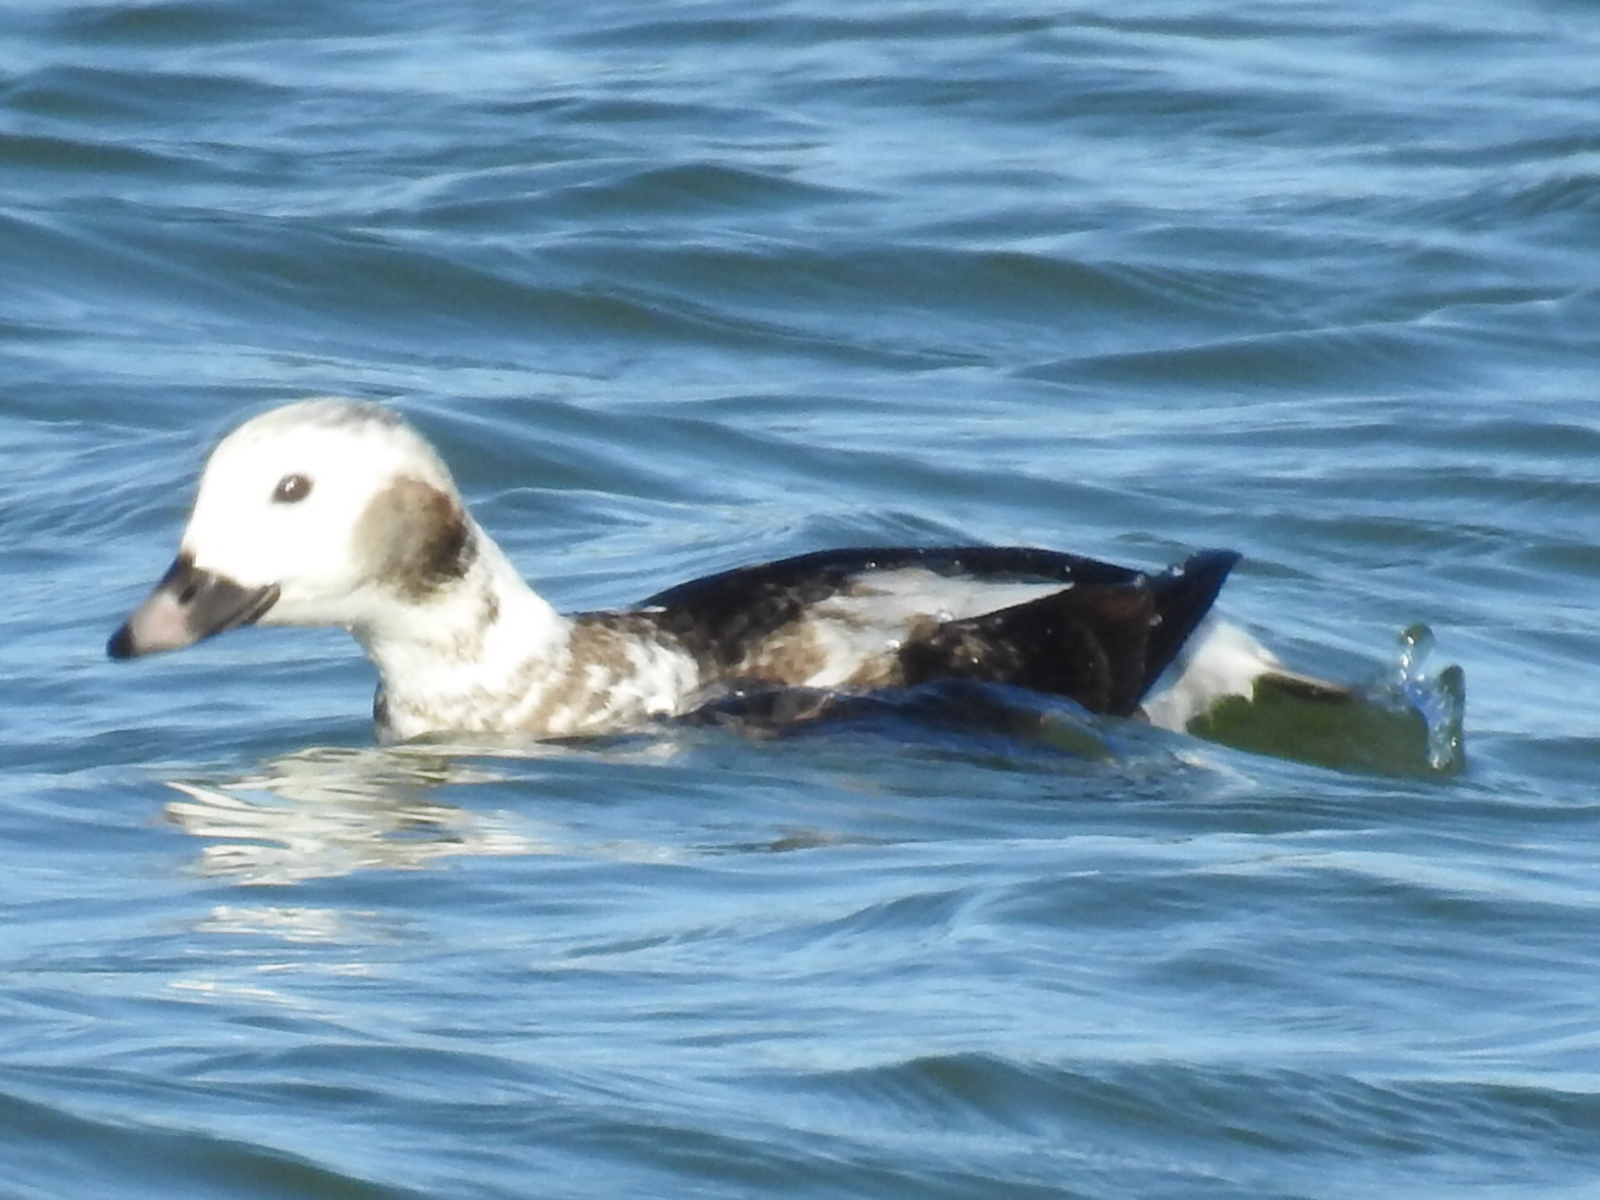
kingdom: Animalia
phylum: Chordata
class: Aves
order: Anseriformes
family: Anatidae
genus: Clangula
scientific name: Clangula hyemalis
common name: Long-tailed duck
